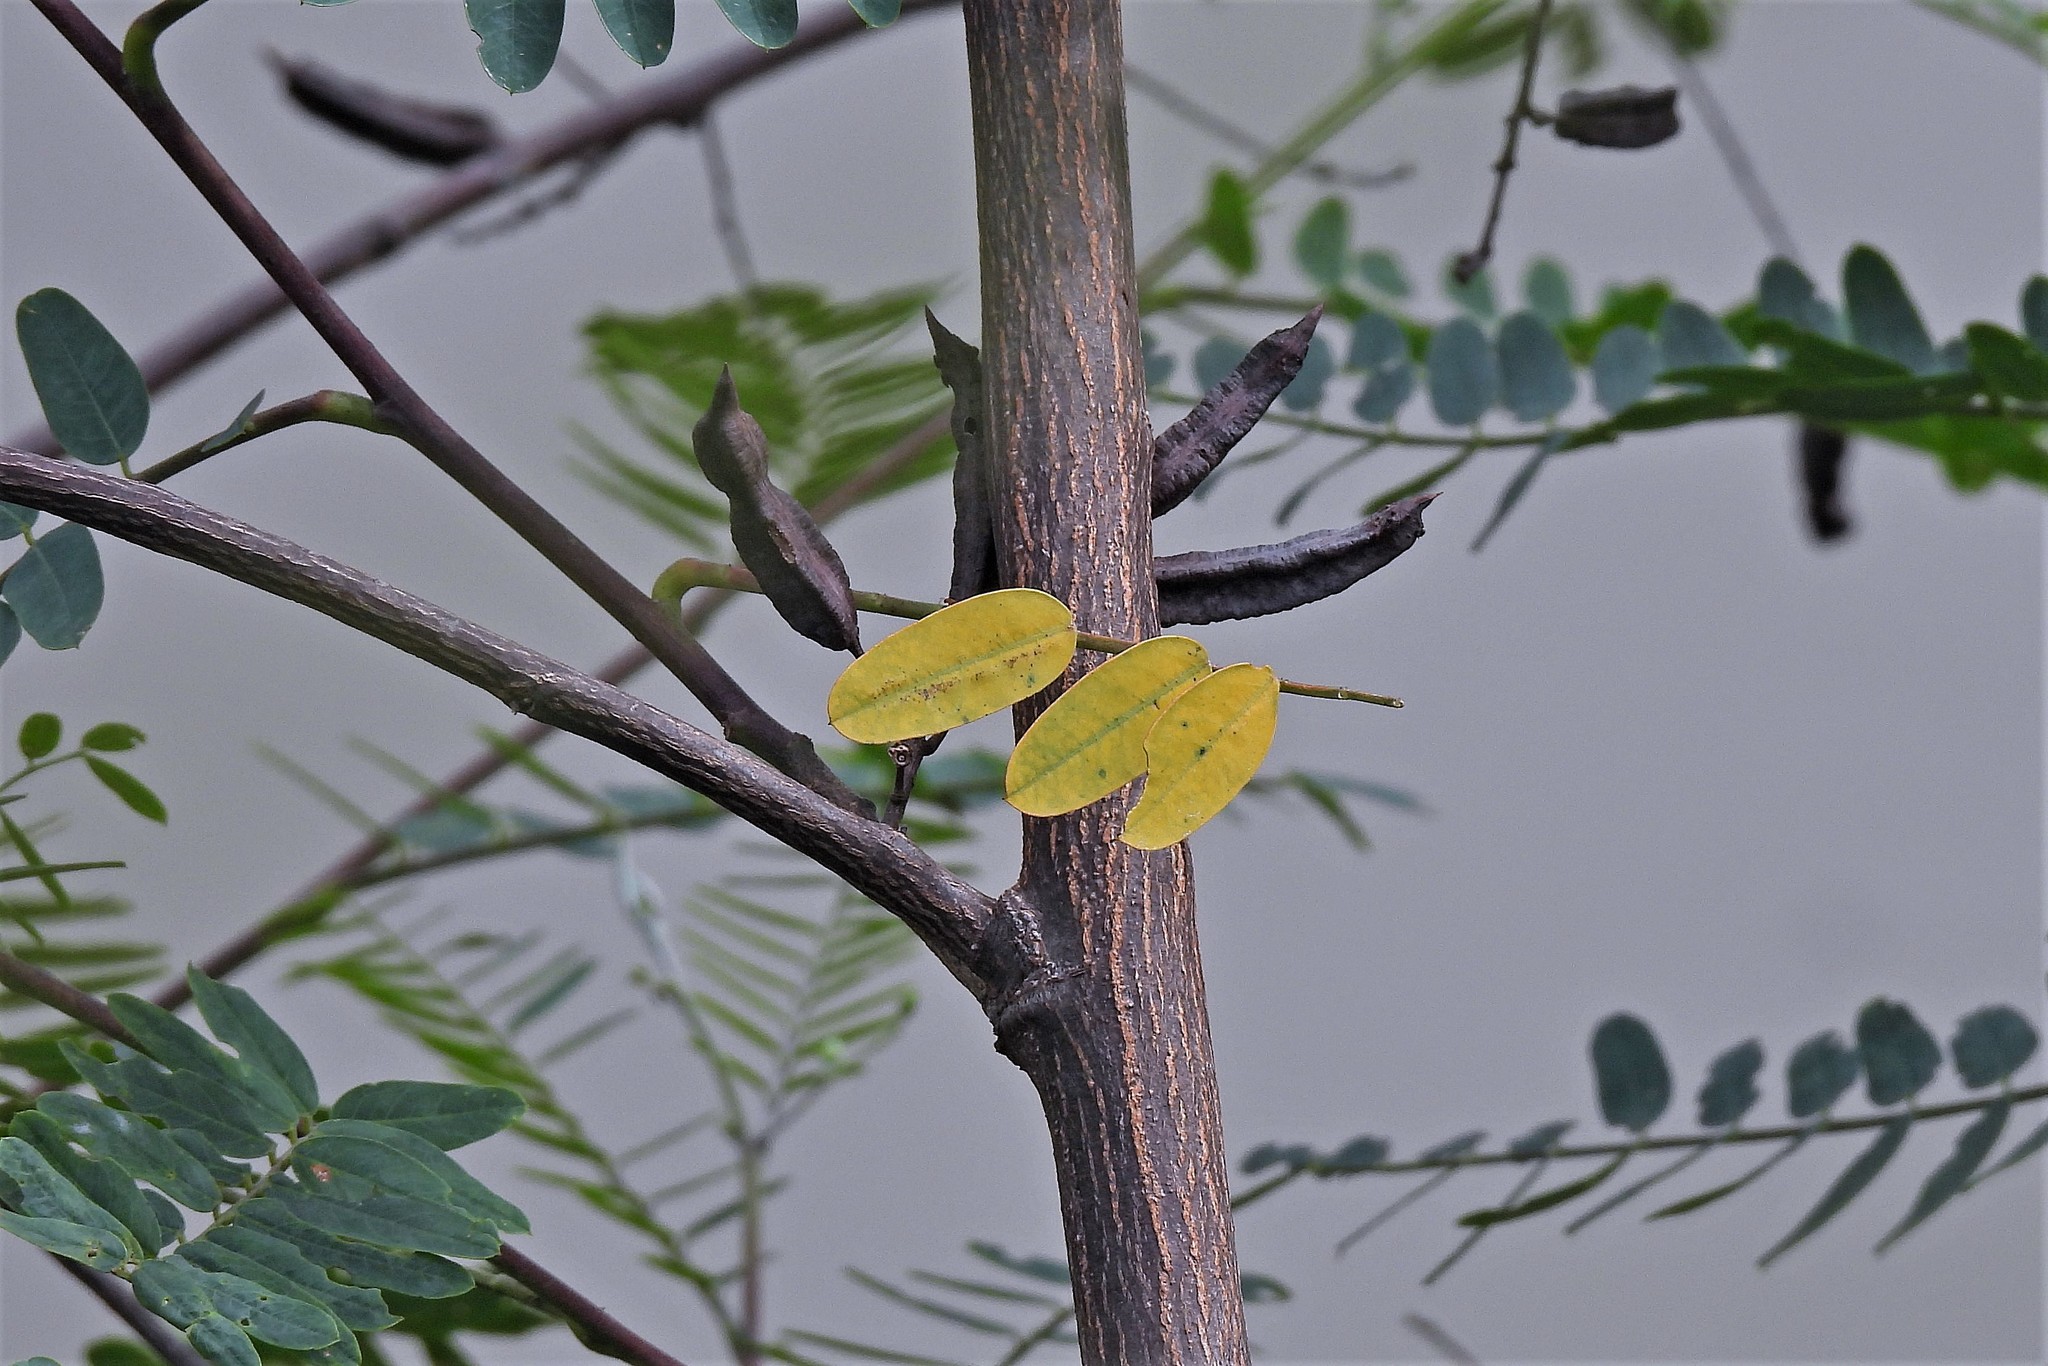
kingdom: Plantae
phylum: Tracheophyta
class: Magnoliopsida
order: Fabales
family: Fabaceae
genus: Sesbania
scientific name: Sesbania virgata
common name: Wand riverhemp
